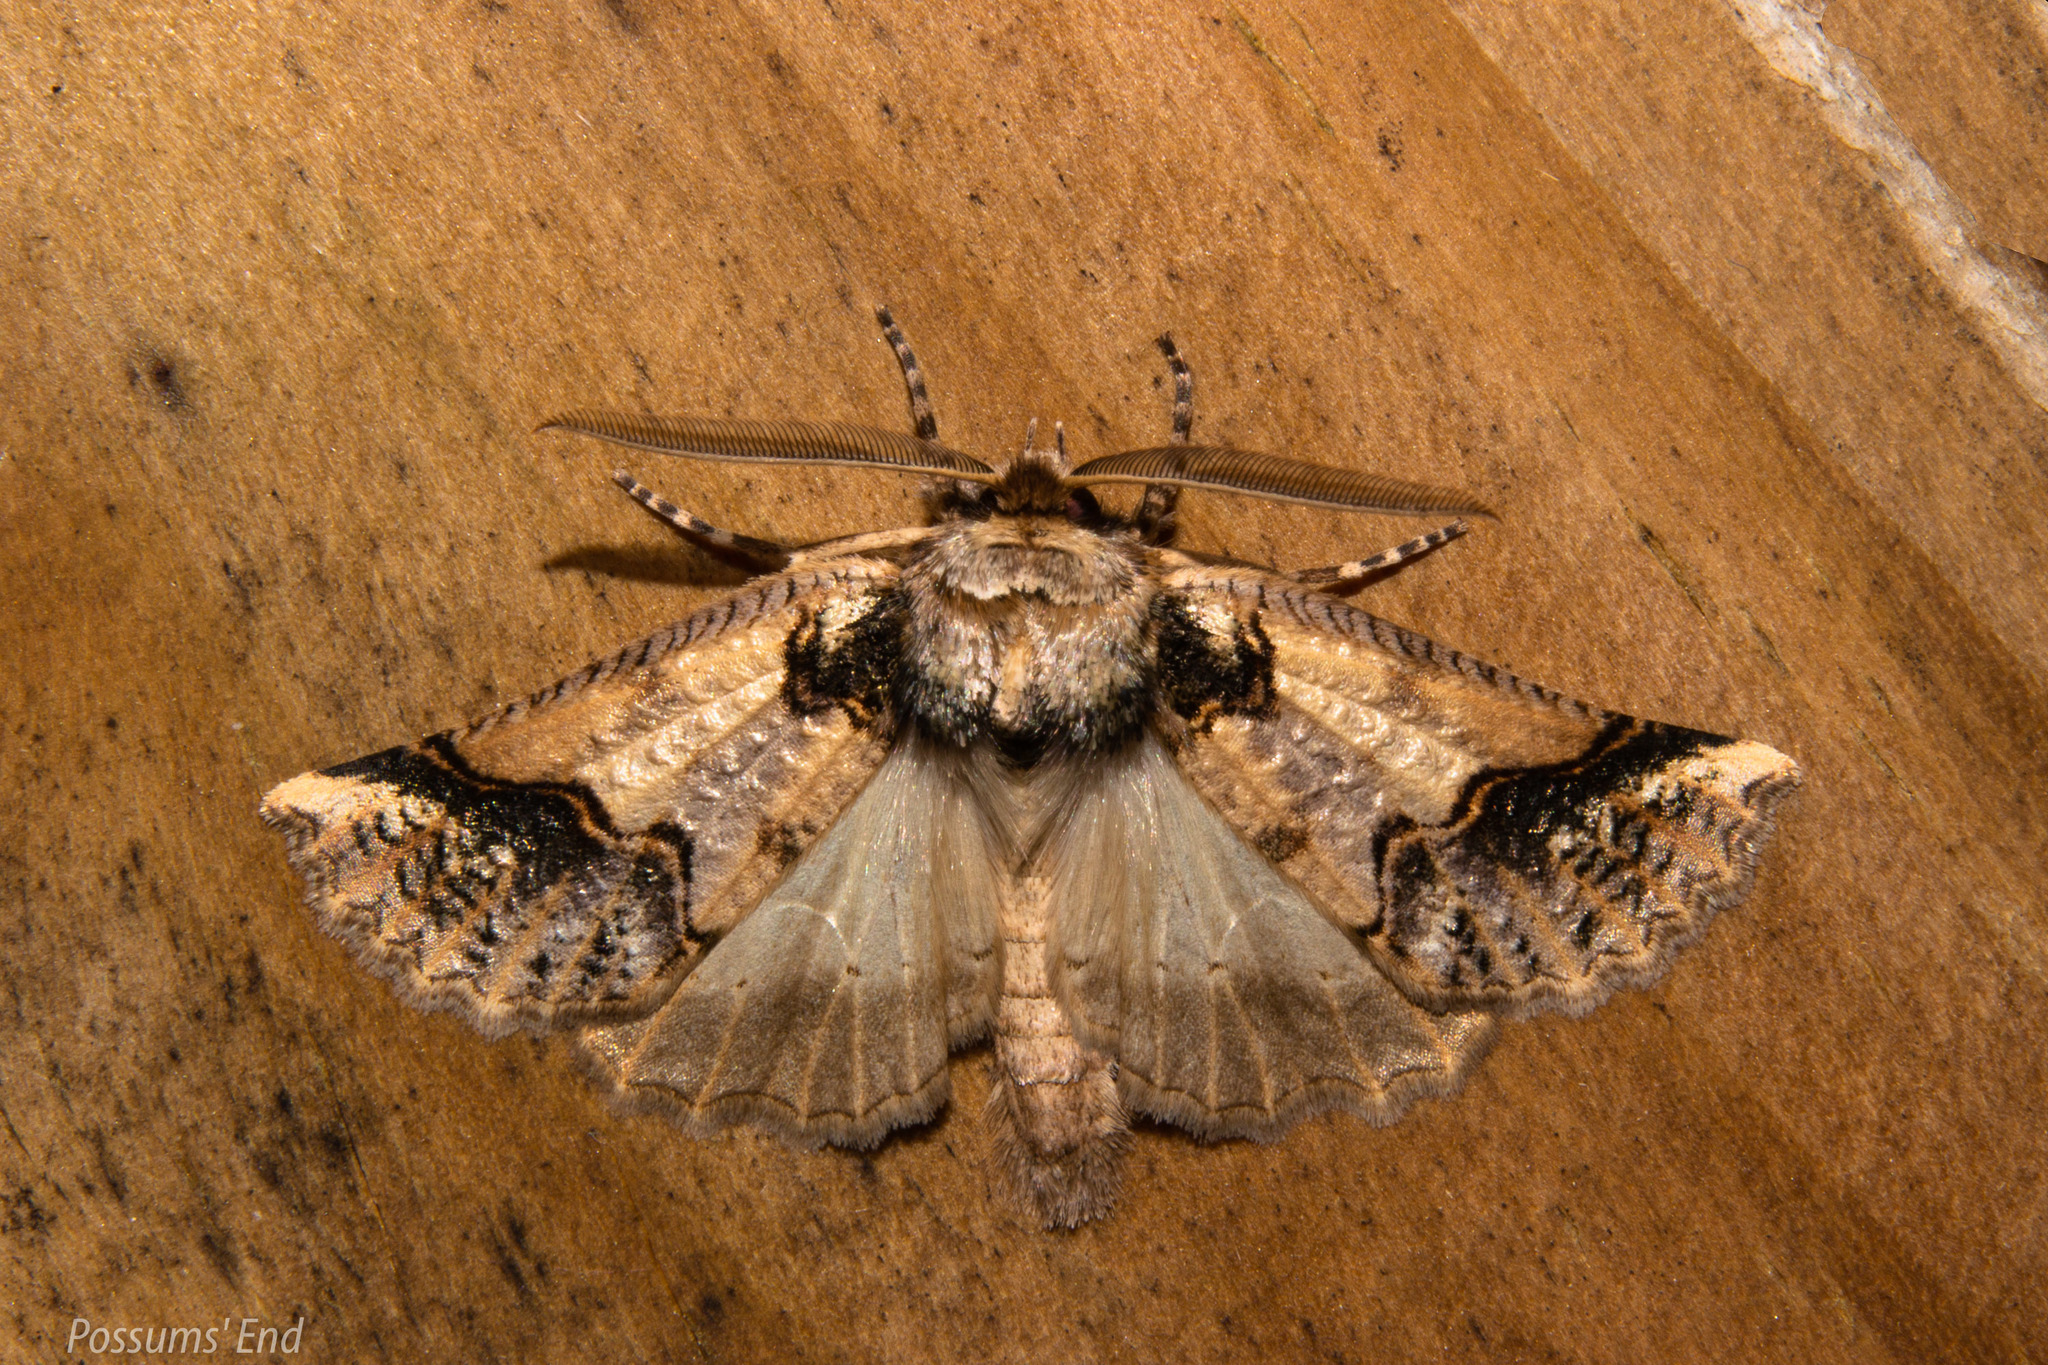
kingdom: Animalia
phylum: Arthropoda
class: Insecta
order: Lepidoptera
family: Geometridae
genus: Declana
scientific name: Declana
